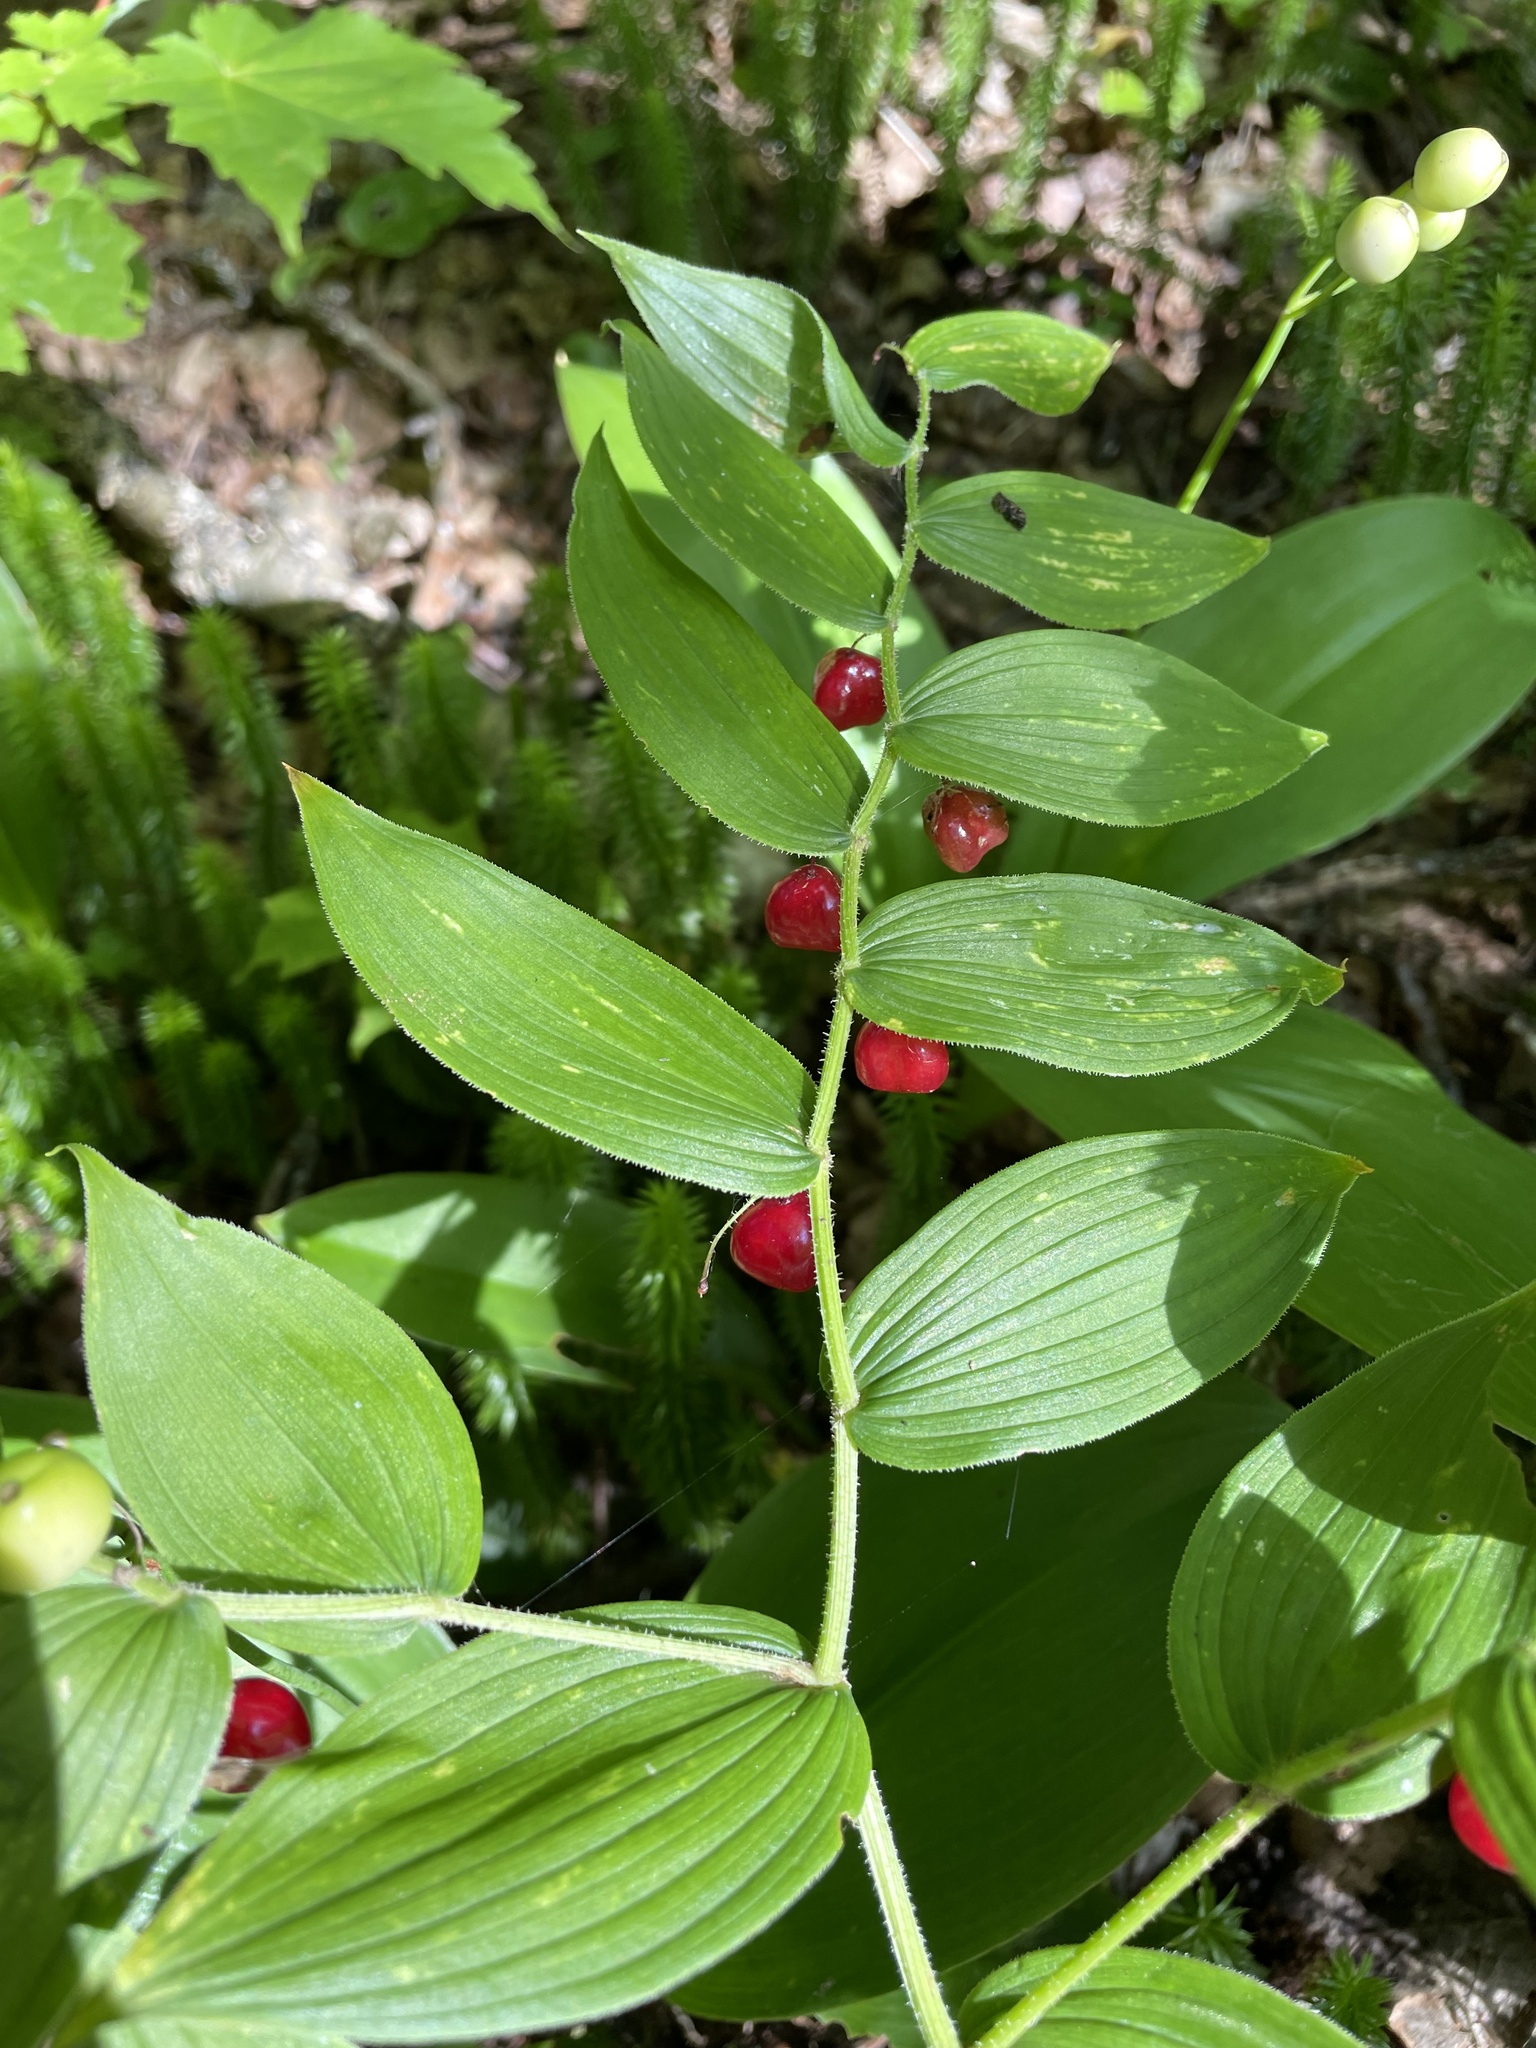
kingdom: Plantae
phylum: Tracheophyta
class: Liliopsida
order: Liliales
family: Liliaceae
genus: Streptopus
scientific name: Streptopus lanceolatus
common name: Rose mandarin
